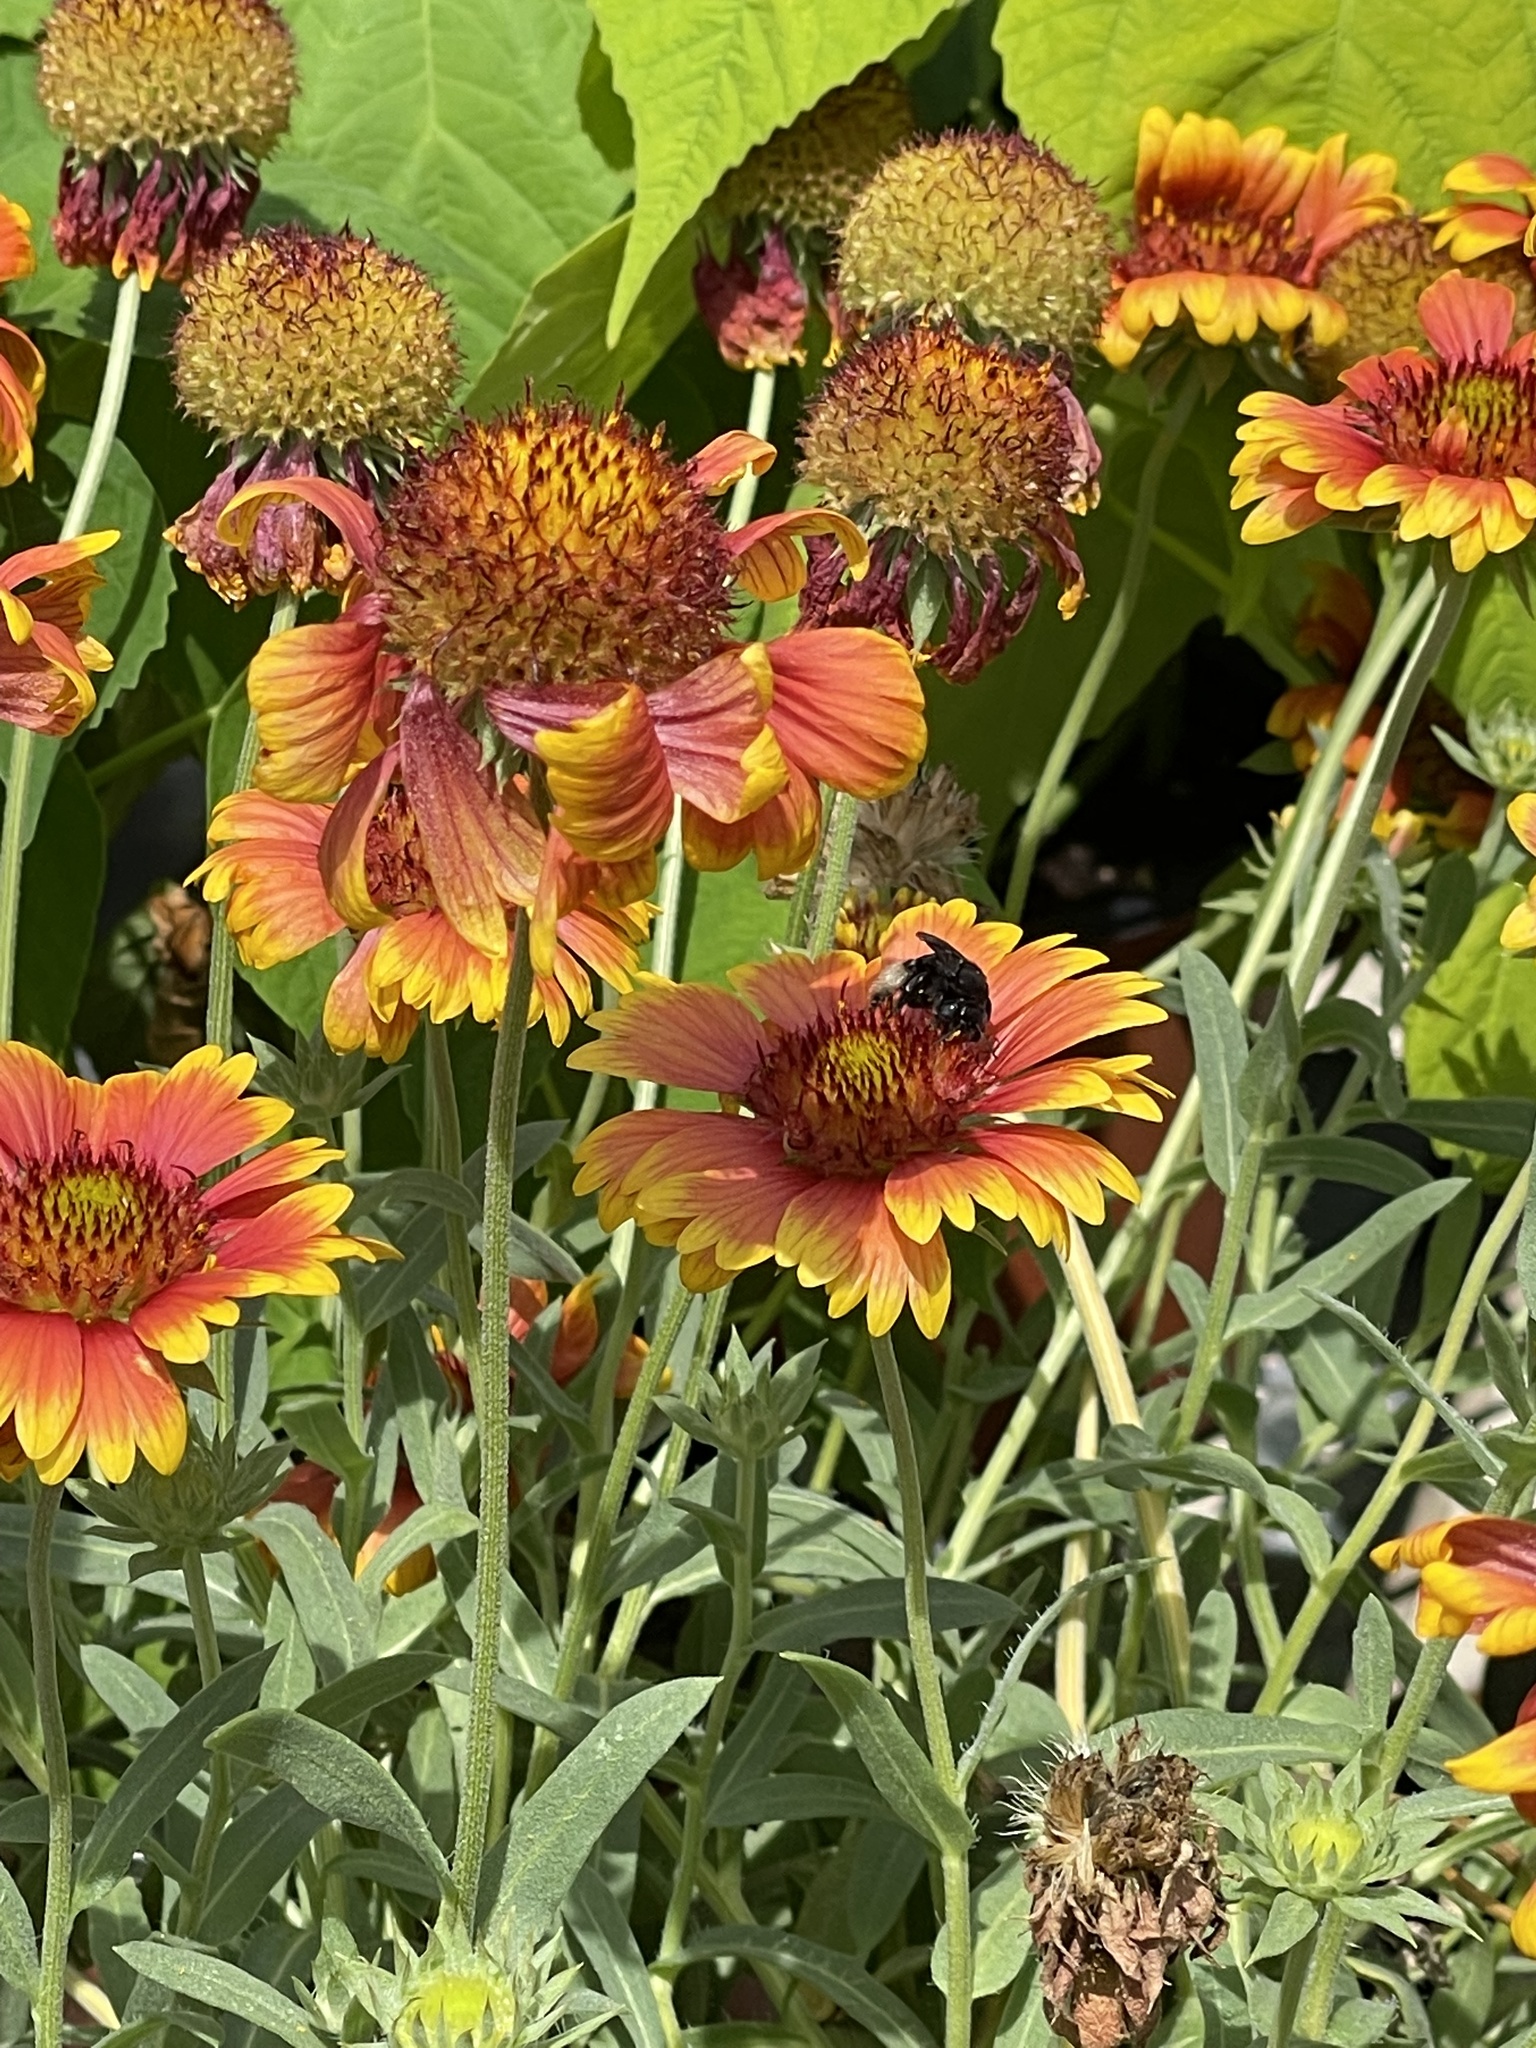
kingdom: Animalia
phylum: Arthropoda
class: Insecta
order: Hymenoptera
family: Apidae
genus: Melissodes
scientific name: Melissodes bimaculatus
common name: Two-spotted long-horned bee
